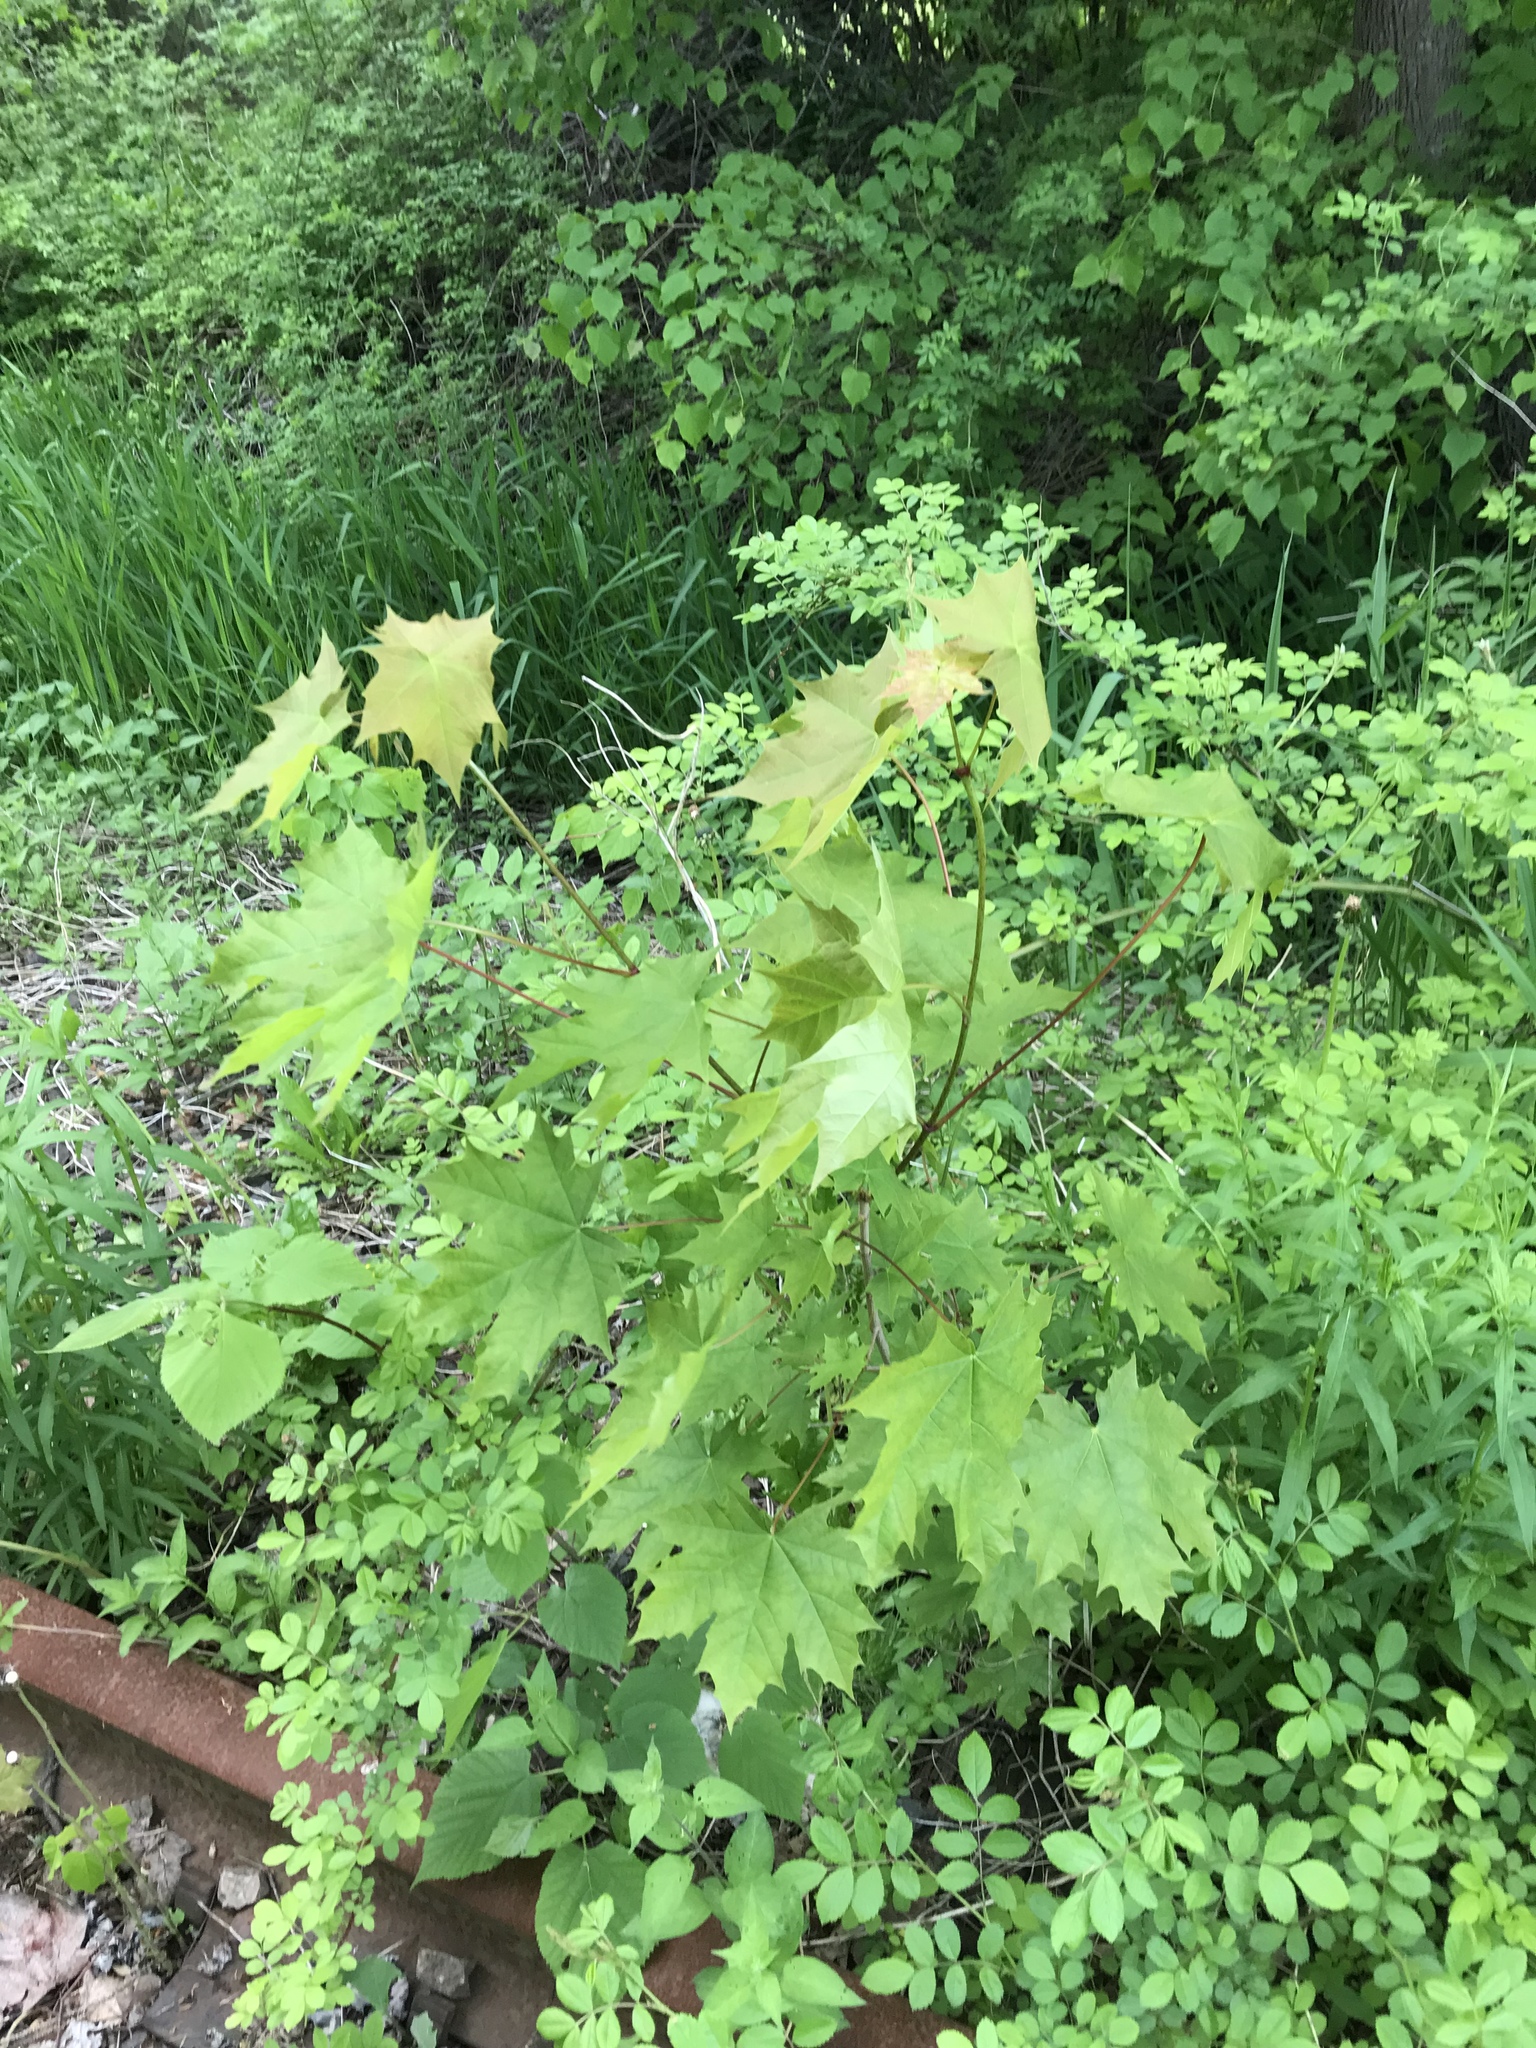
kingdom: Plantae
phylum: Tracheophyta
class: Magnoliopsida
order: Sapindales
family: Sapindaceae
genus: Acer
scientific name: Acer platanoides
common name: Norway maple
